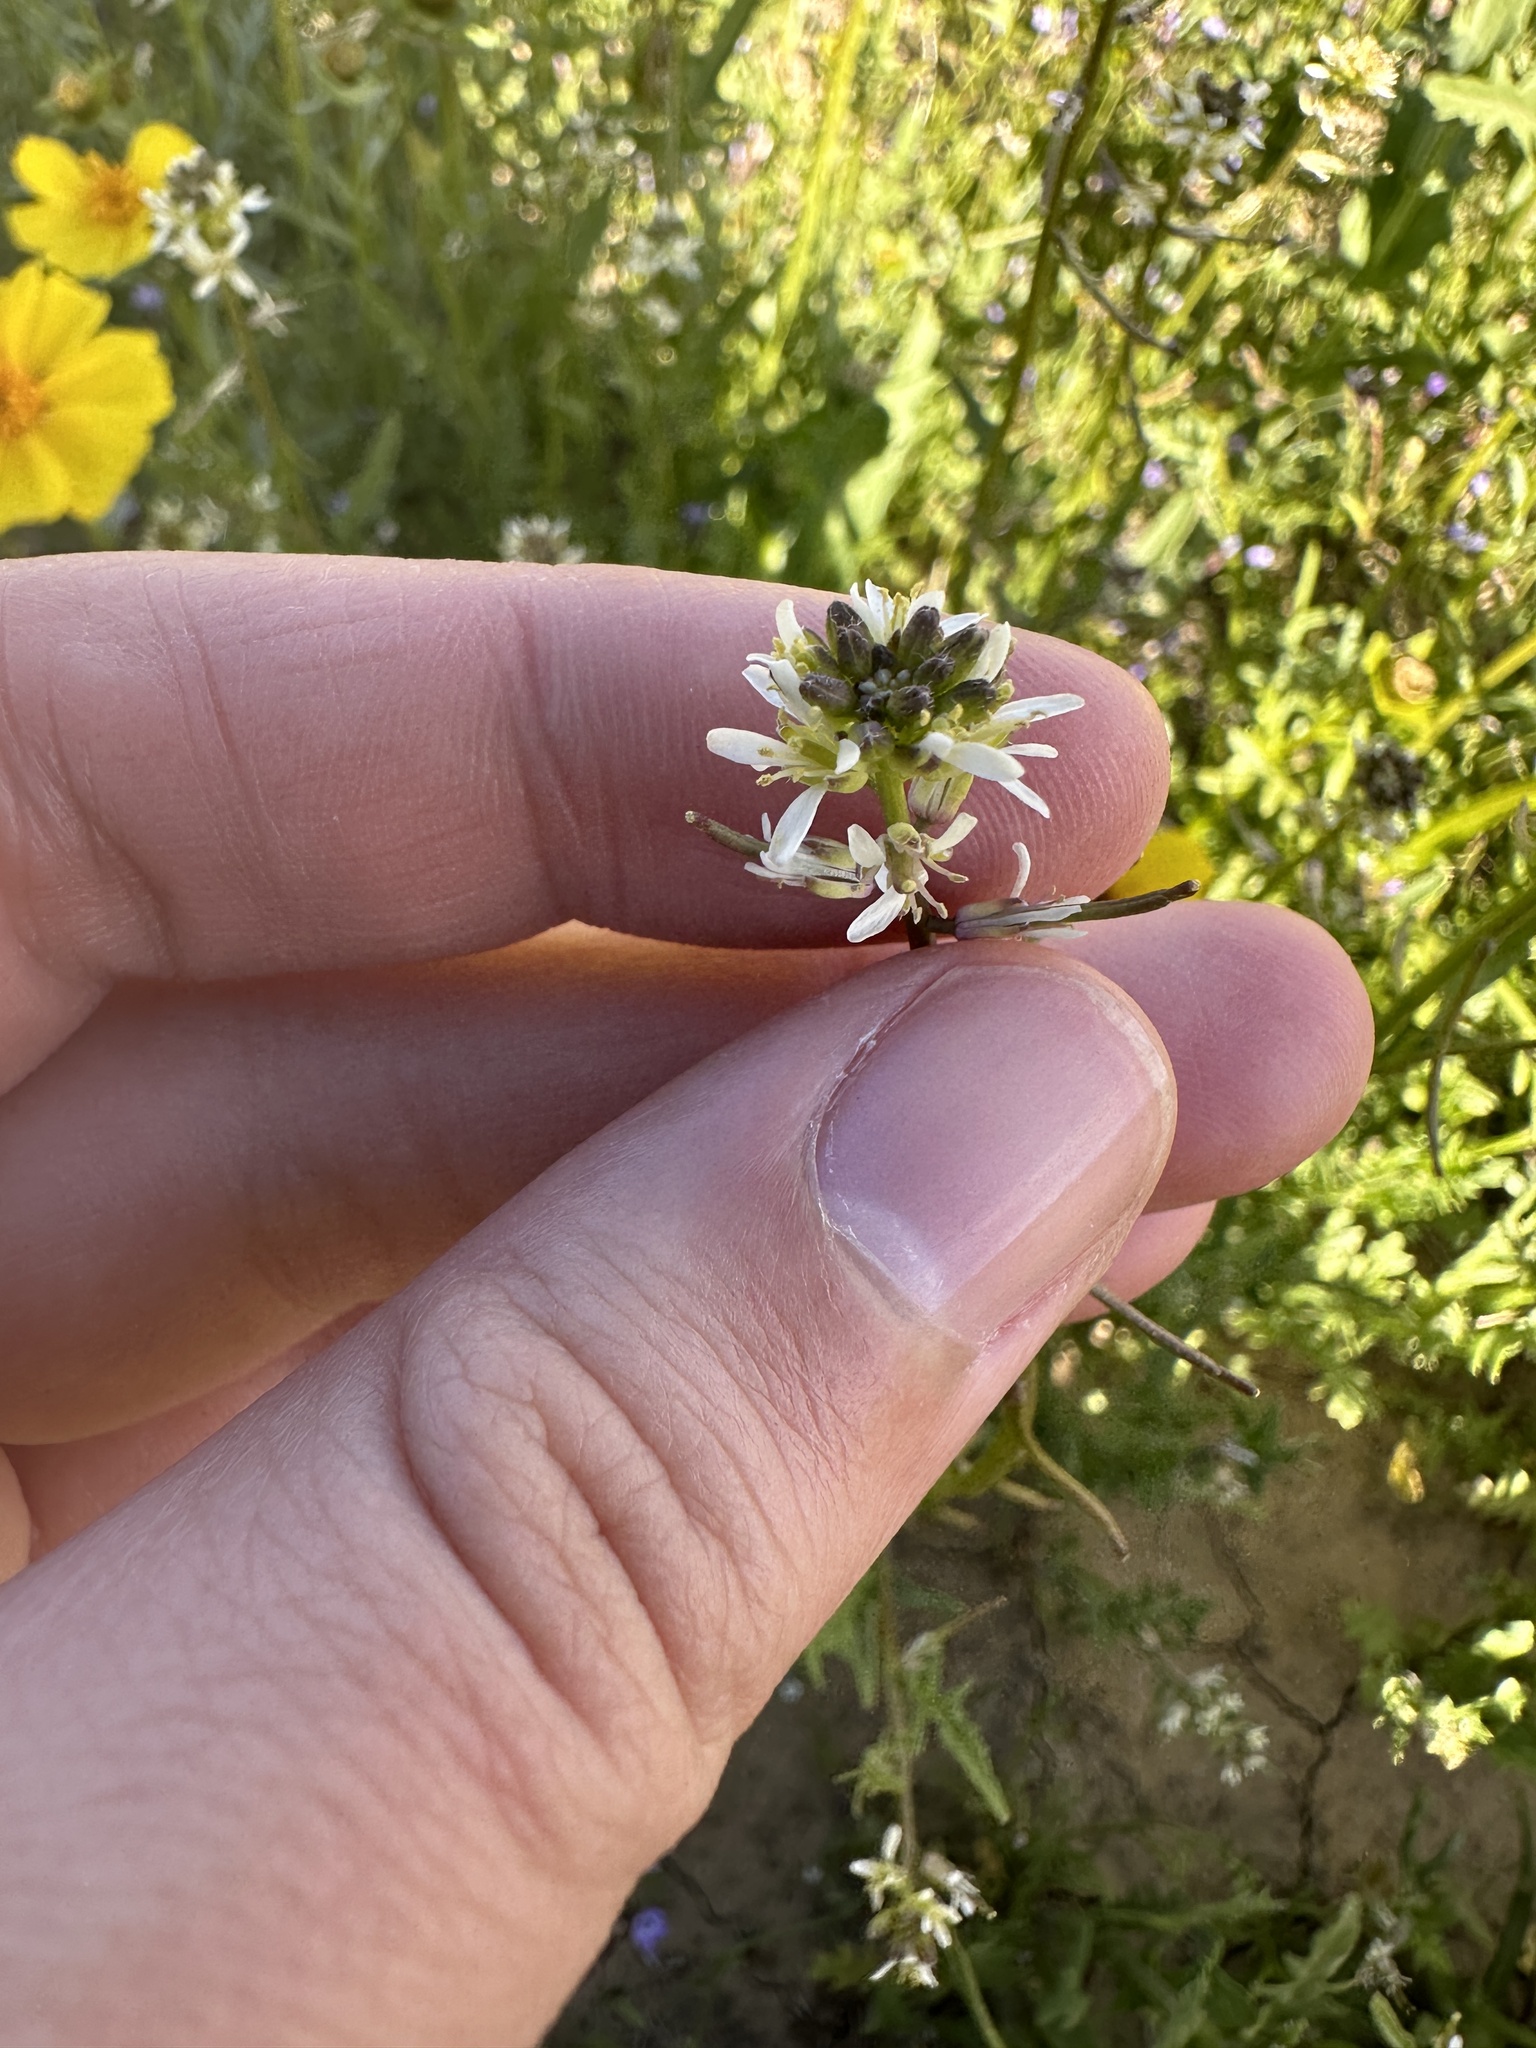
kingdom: Plantae
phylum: Tracheophyta
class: Magnoliopsida
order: Brassicales
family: Brassicaceae
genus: Streptanthus
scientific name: Streptanthus lasiophyllus
